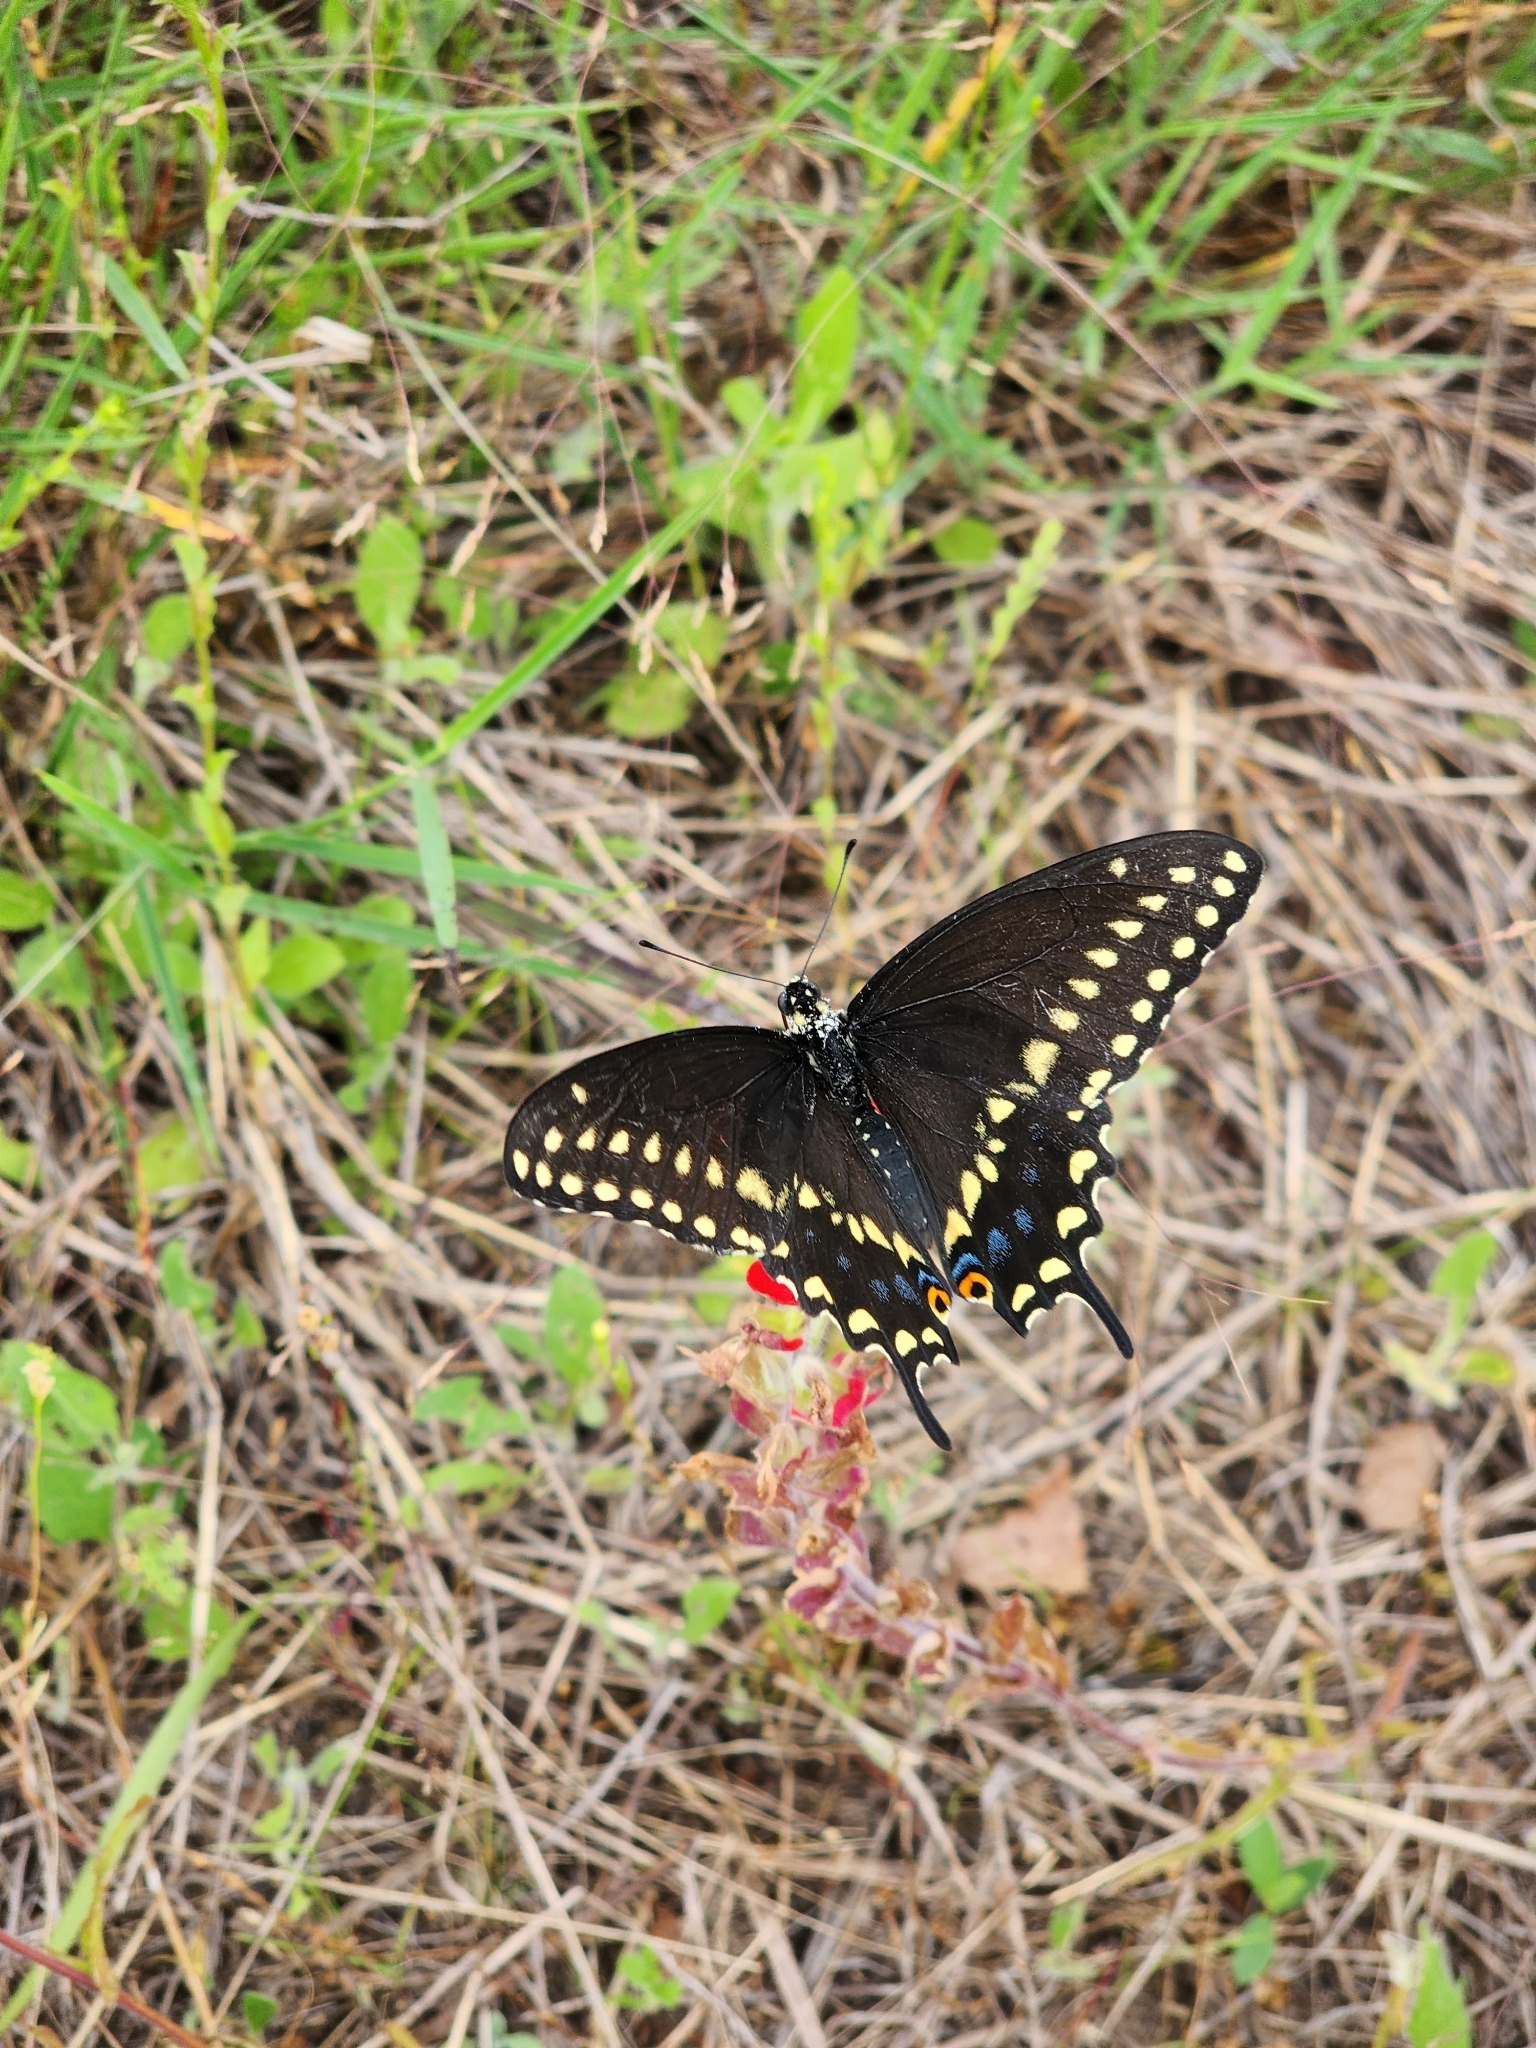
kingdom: Animalia
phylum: Arthropoda
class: Insecta
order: Lepidoptera
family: Papilionidae
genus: Papilio
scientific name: Papilio polyxenes
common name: Black swallowtail
